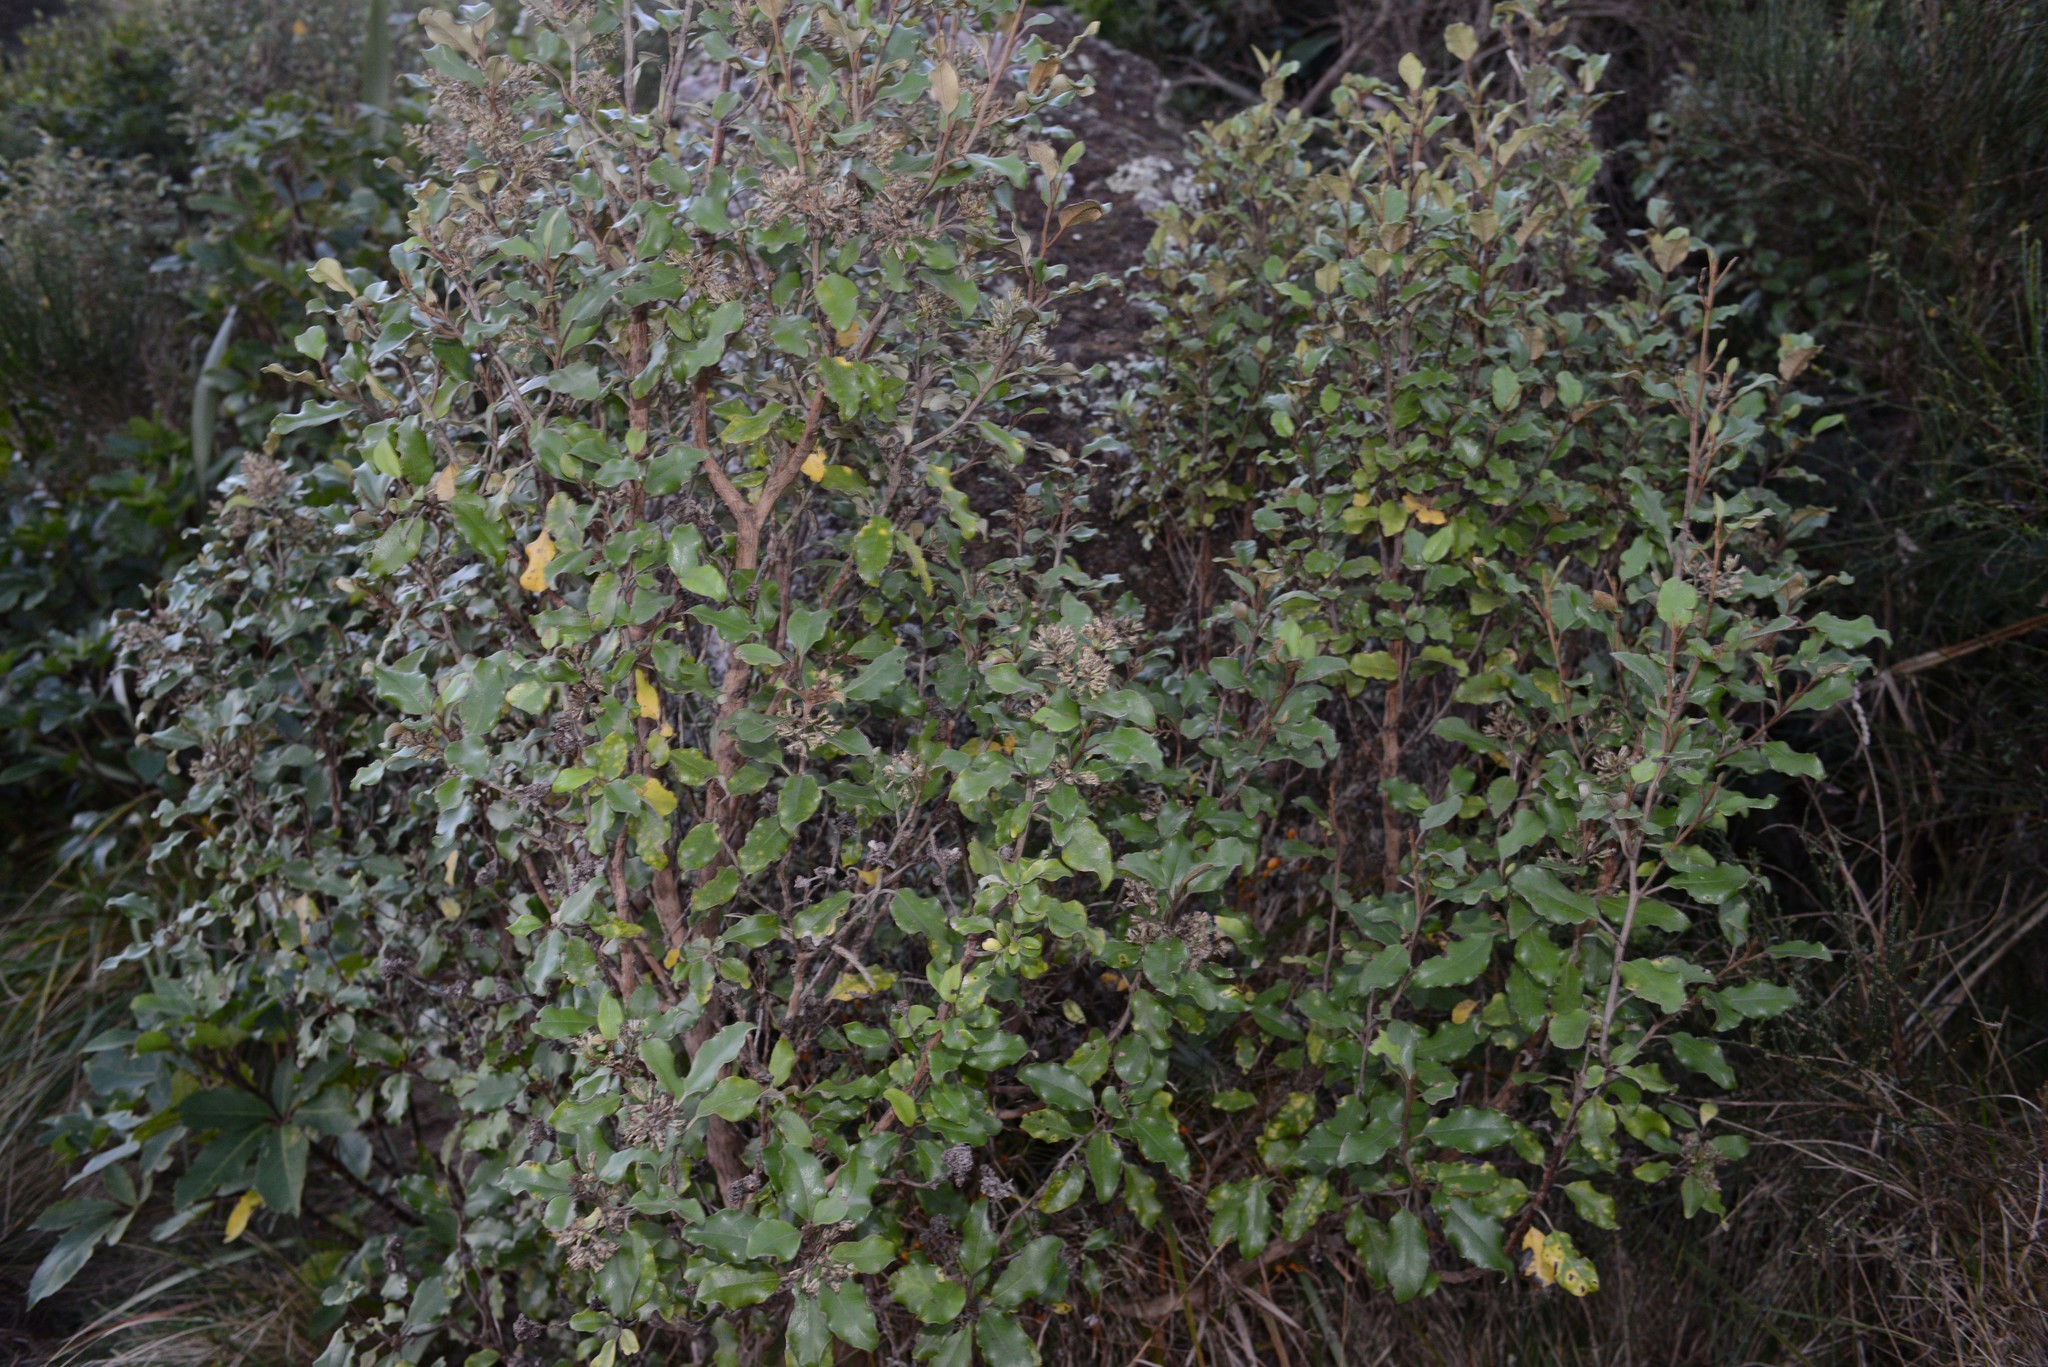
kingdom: Plantae
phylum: Tracheophyta
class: Magnoliopsida
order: Asterales
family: Asteraceae
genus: Olearia
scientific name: Olearia paniculata
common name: Akiraho
